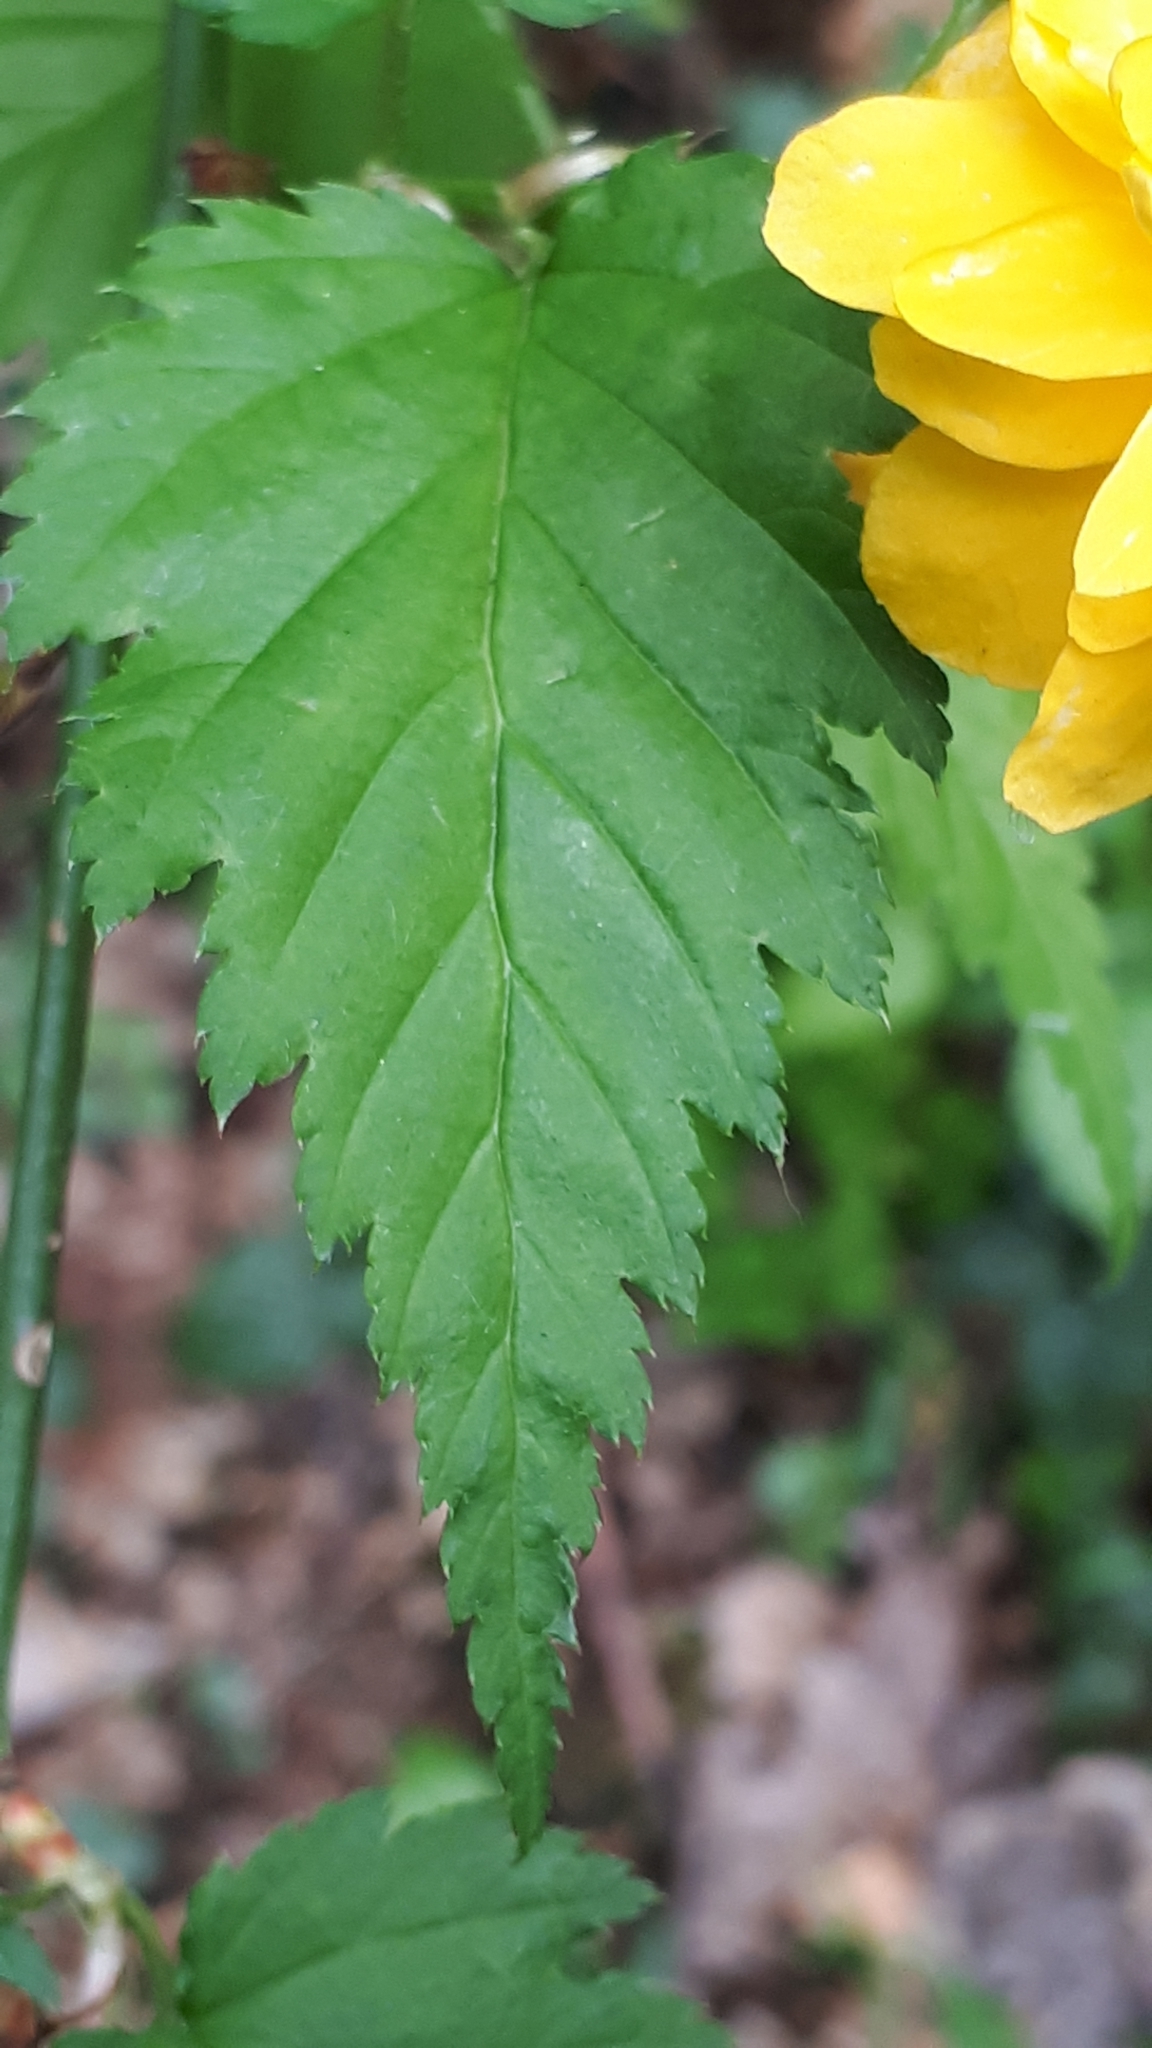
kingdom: Plantae
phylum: Tracheophyta
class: Magnoliopsida
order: Rosales
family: Rosaceae
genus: Kerria
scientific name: Kerria japonica
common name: Japanese kerria
